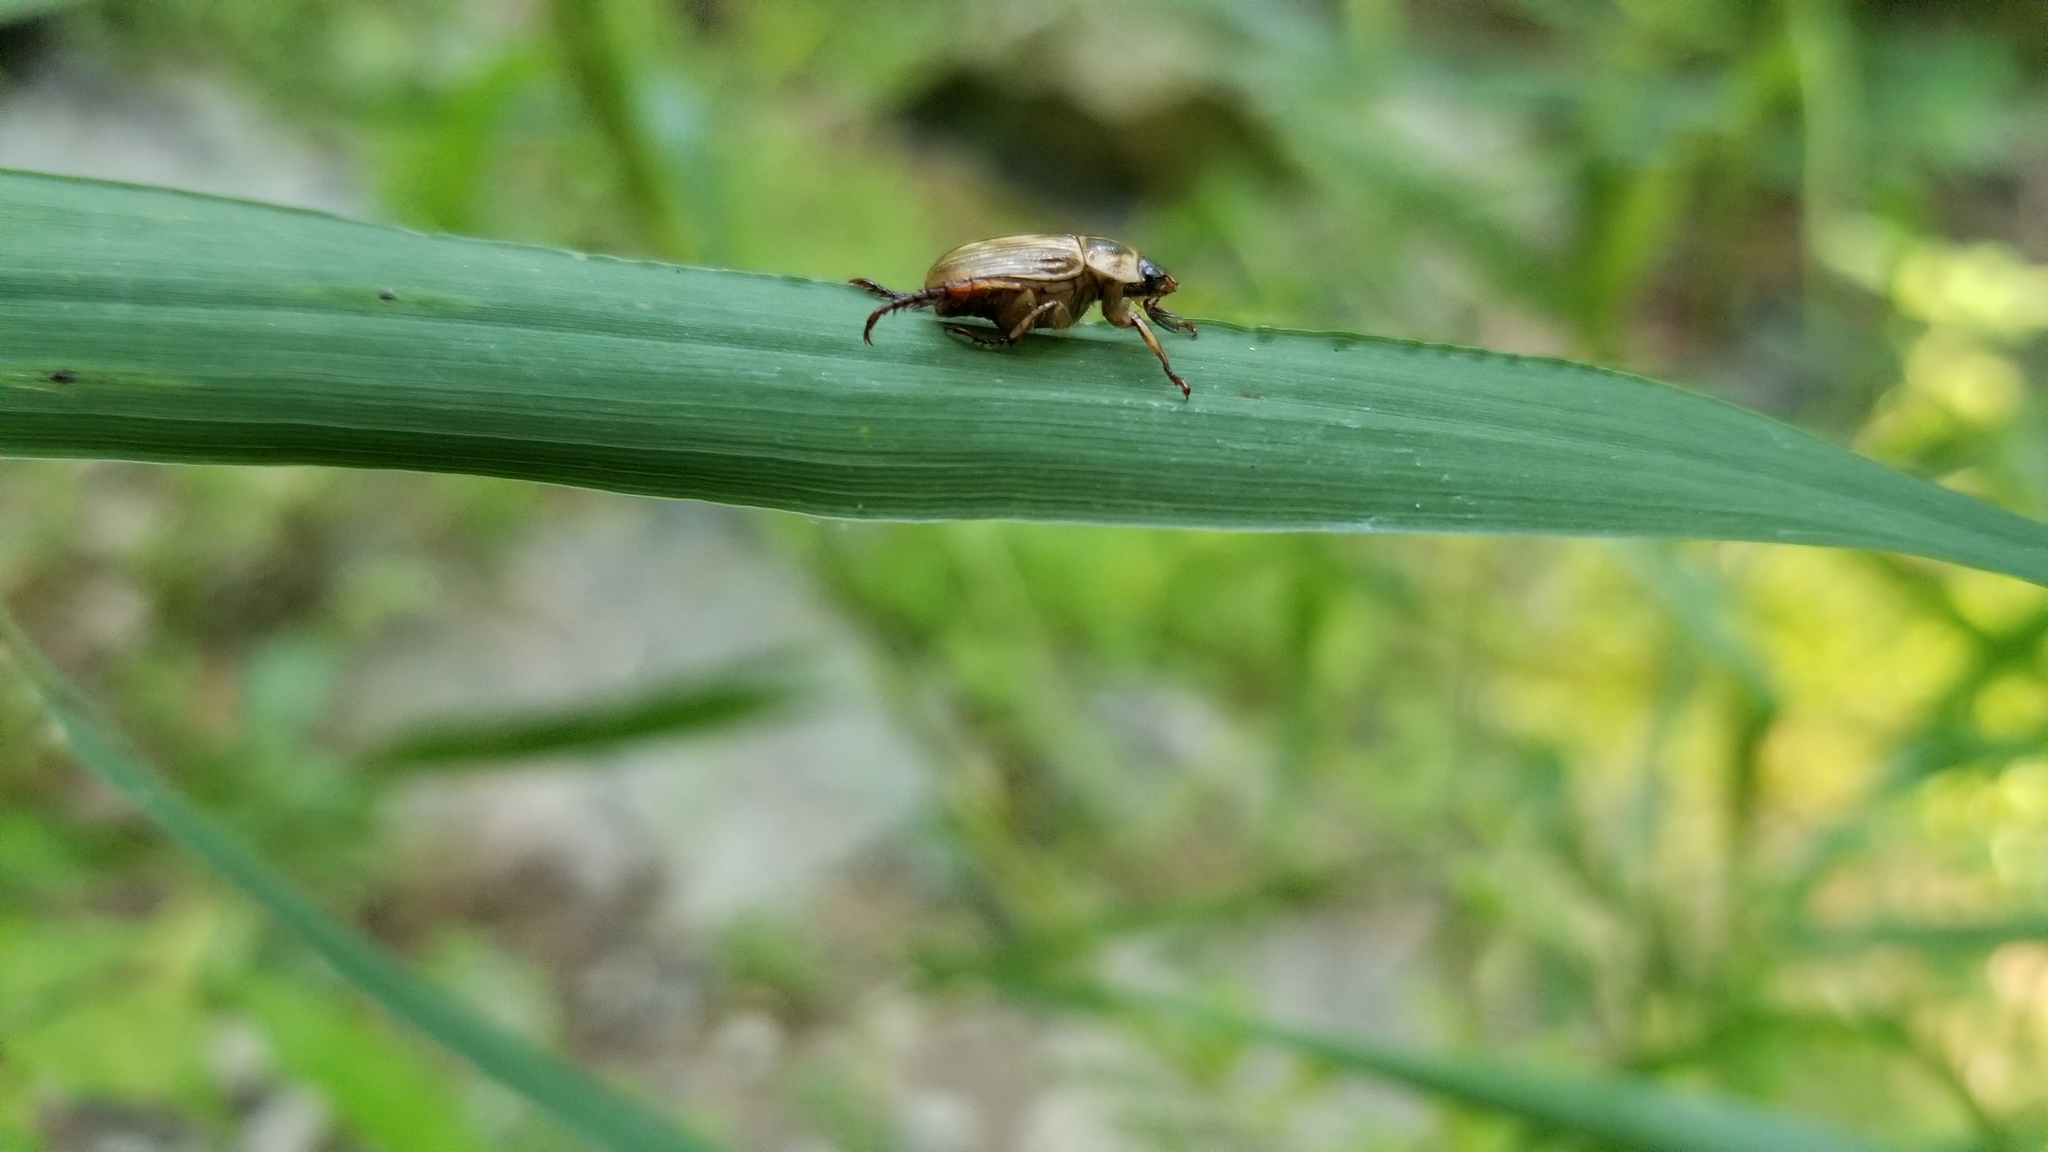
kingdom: Animalia
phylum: Arthropoda
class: Insecta
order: Coleoptera
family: Scarabaeidae
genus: Exomala
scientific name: Exomala orientalis
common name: Oriental beetle
